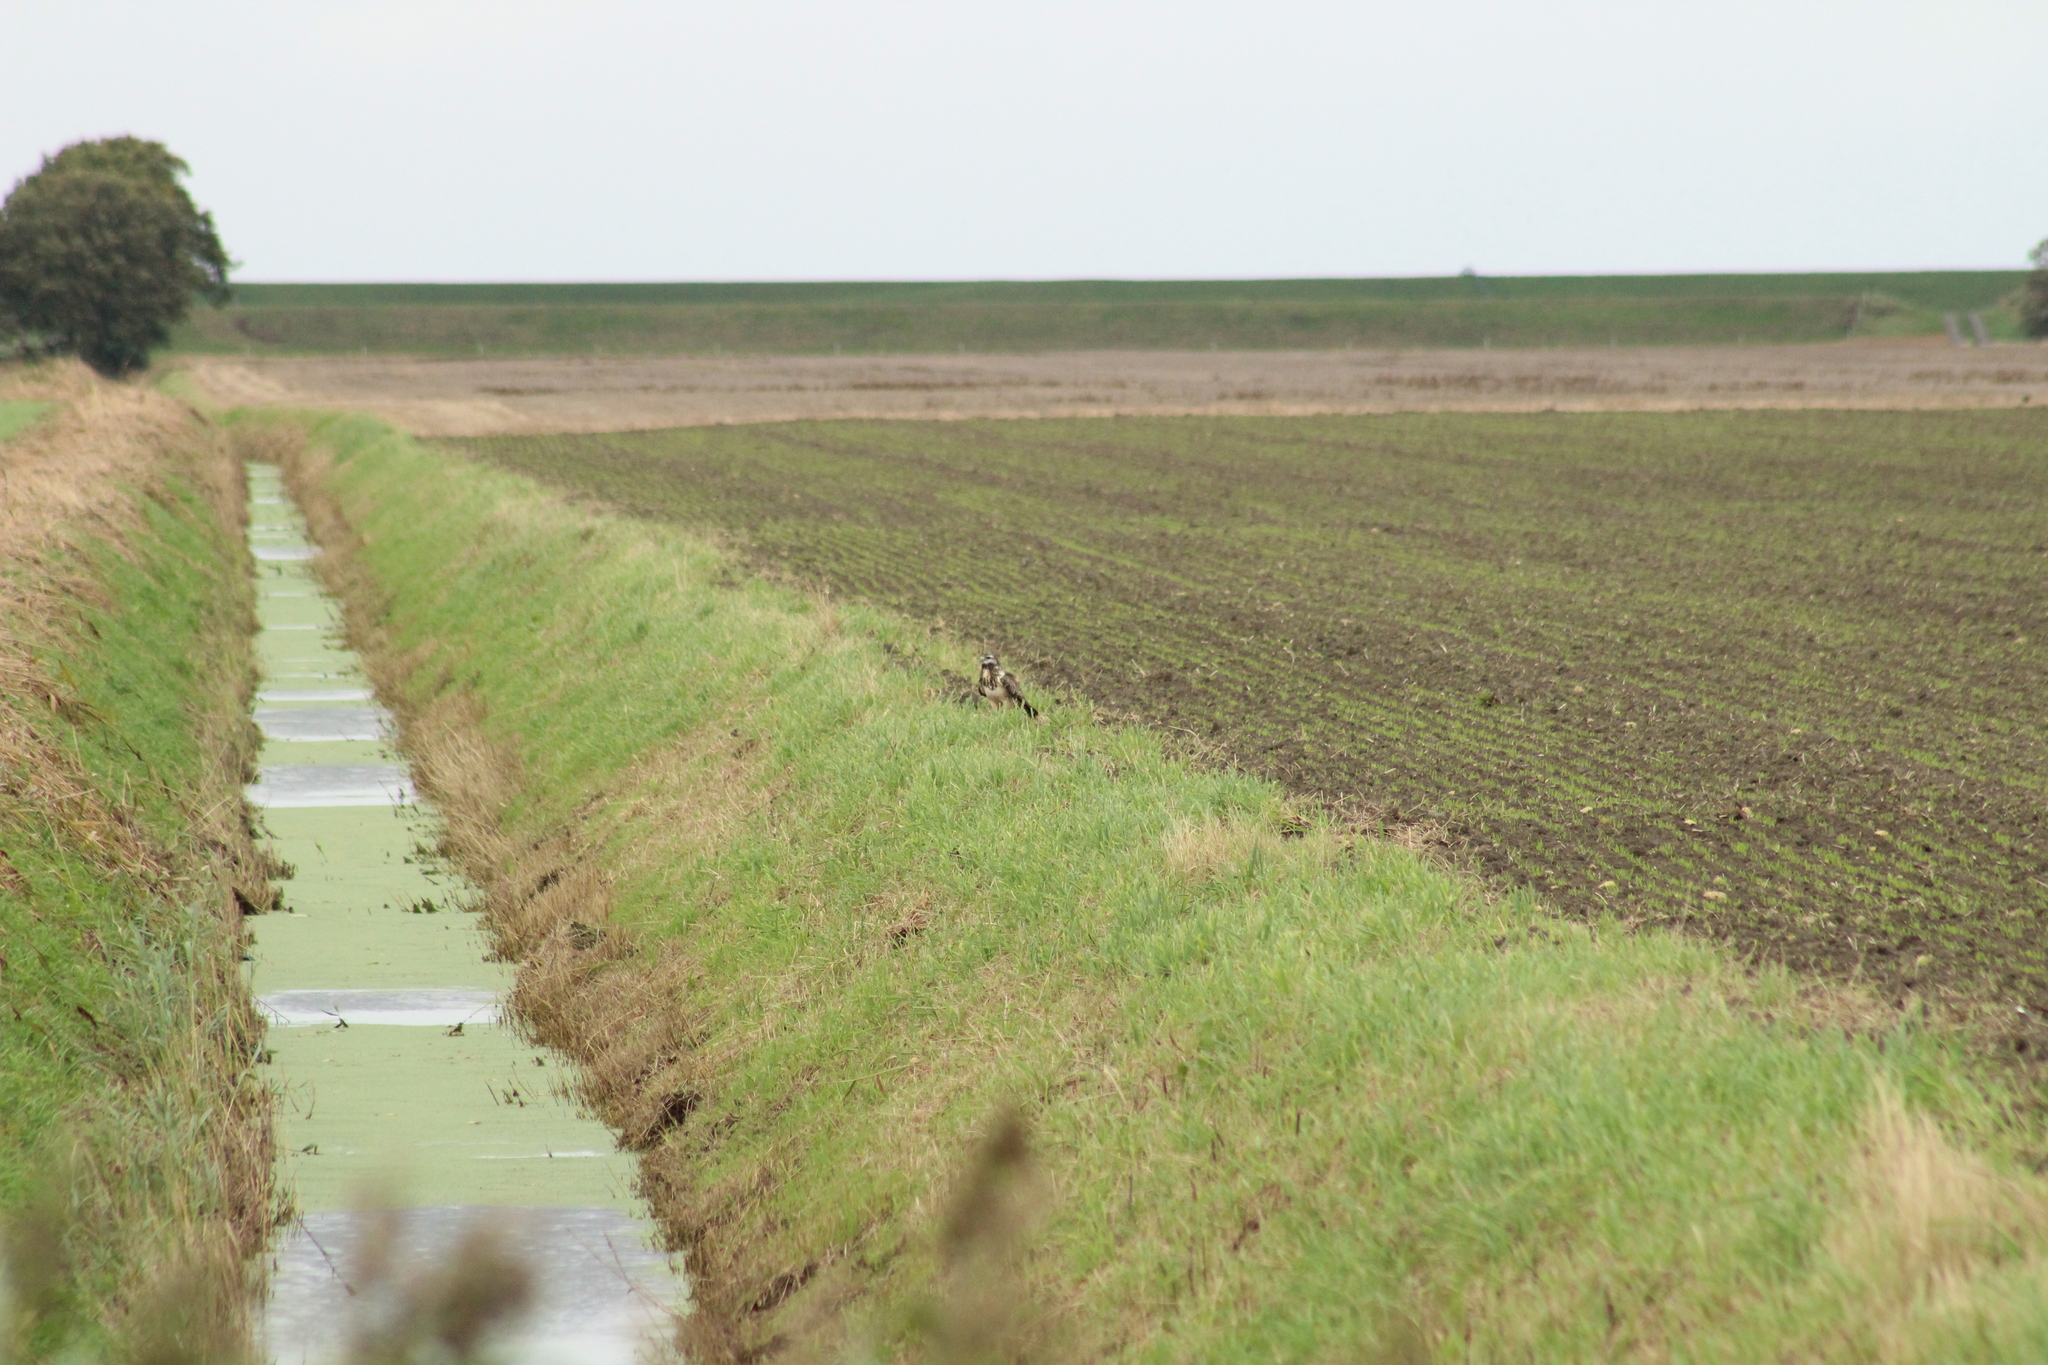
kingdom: Animalia
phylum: Chordata
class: Aves
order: Accipitriformes
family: Accipitridae
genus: Buteo
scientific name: Buteo buteo
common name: Common buzzard
